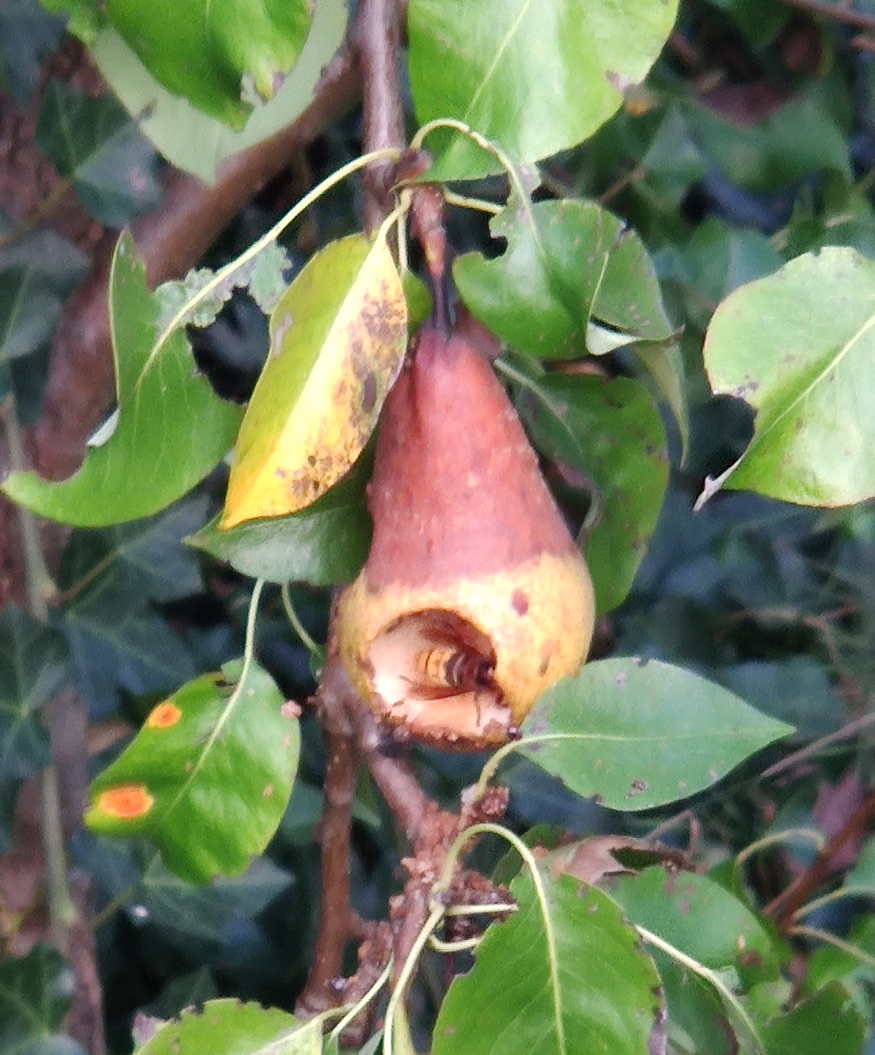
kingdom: Animalia
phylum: Arthropoda
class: Insecta
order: Hymenoptera
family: Vespidae
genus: Vespa
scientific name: Vespa crabro
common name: Hornet
